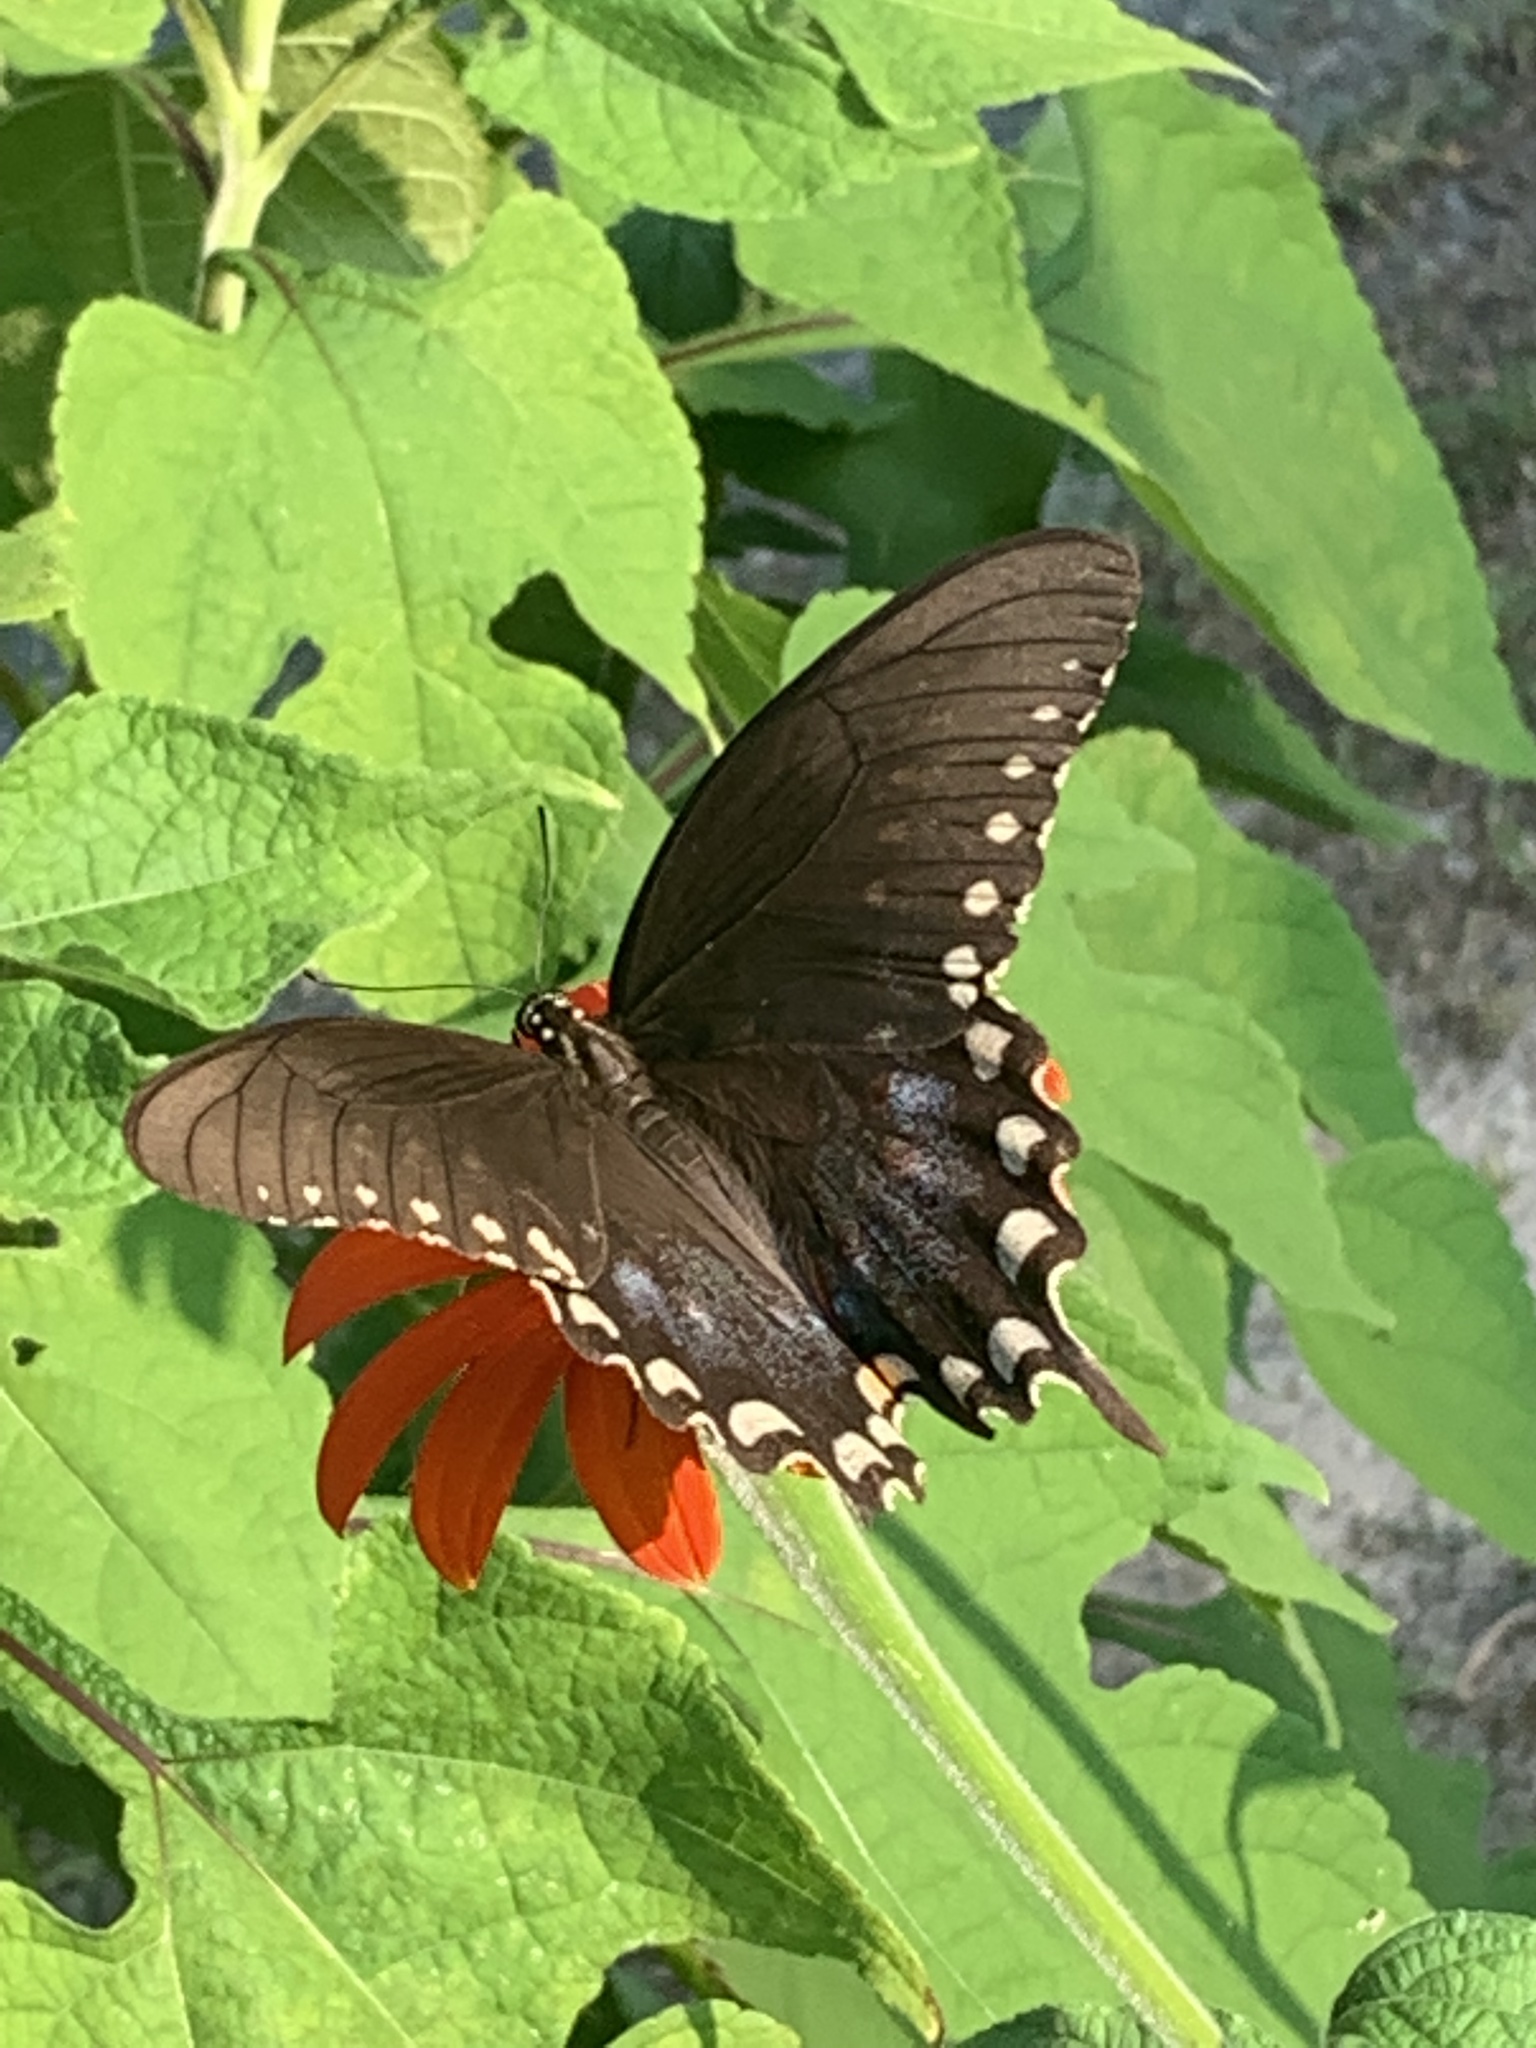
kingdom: Animalia
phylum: Arthropoda
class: Insecta
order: Lepidoptera
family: Papilionidae
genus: Papilio
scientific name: Papilio troilus
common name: Spicebush swallowtail
